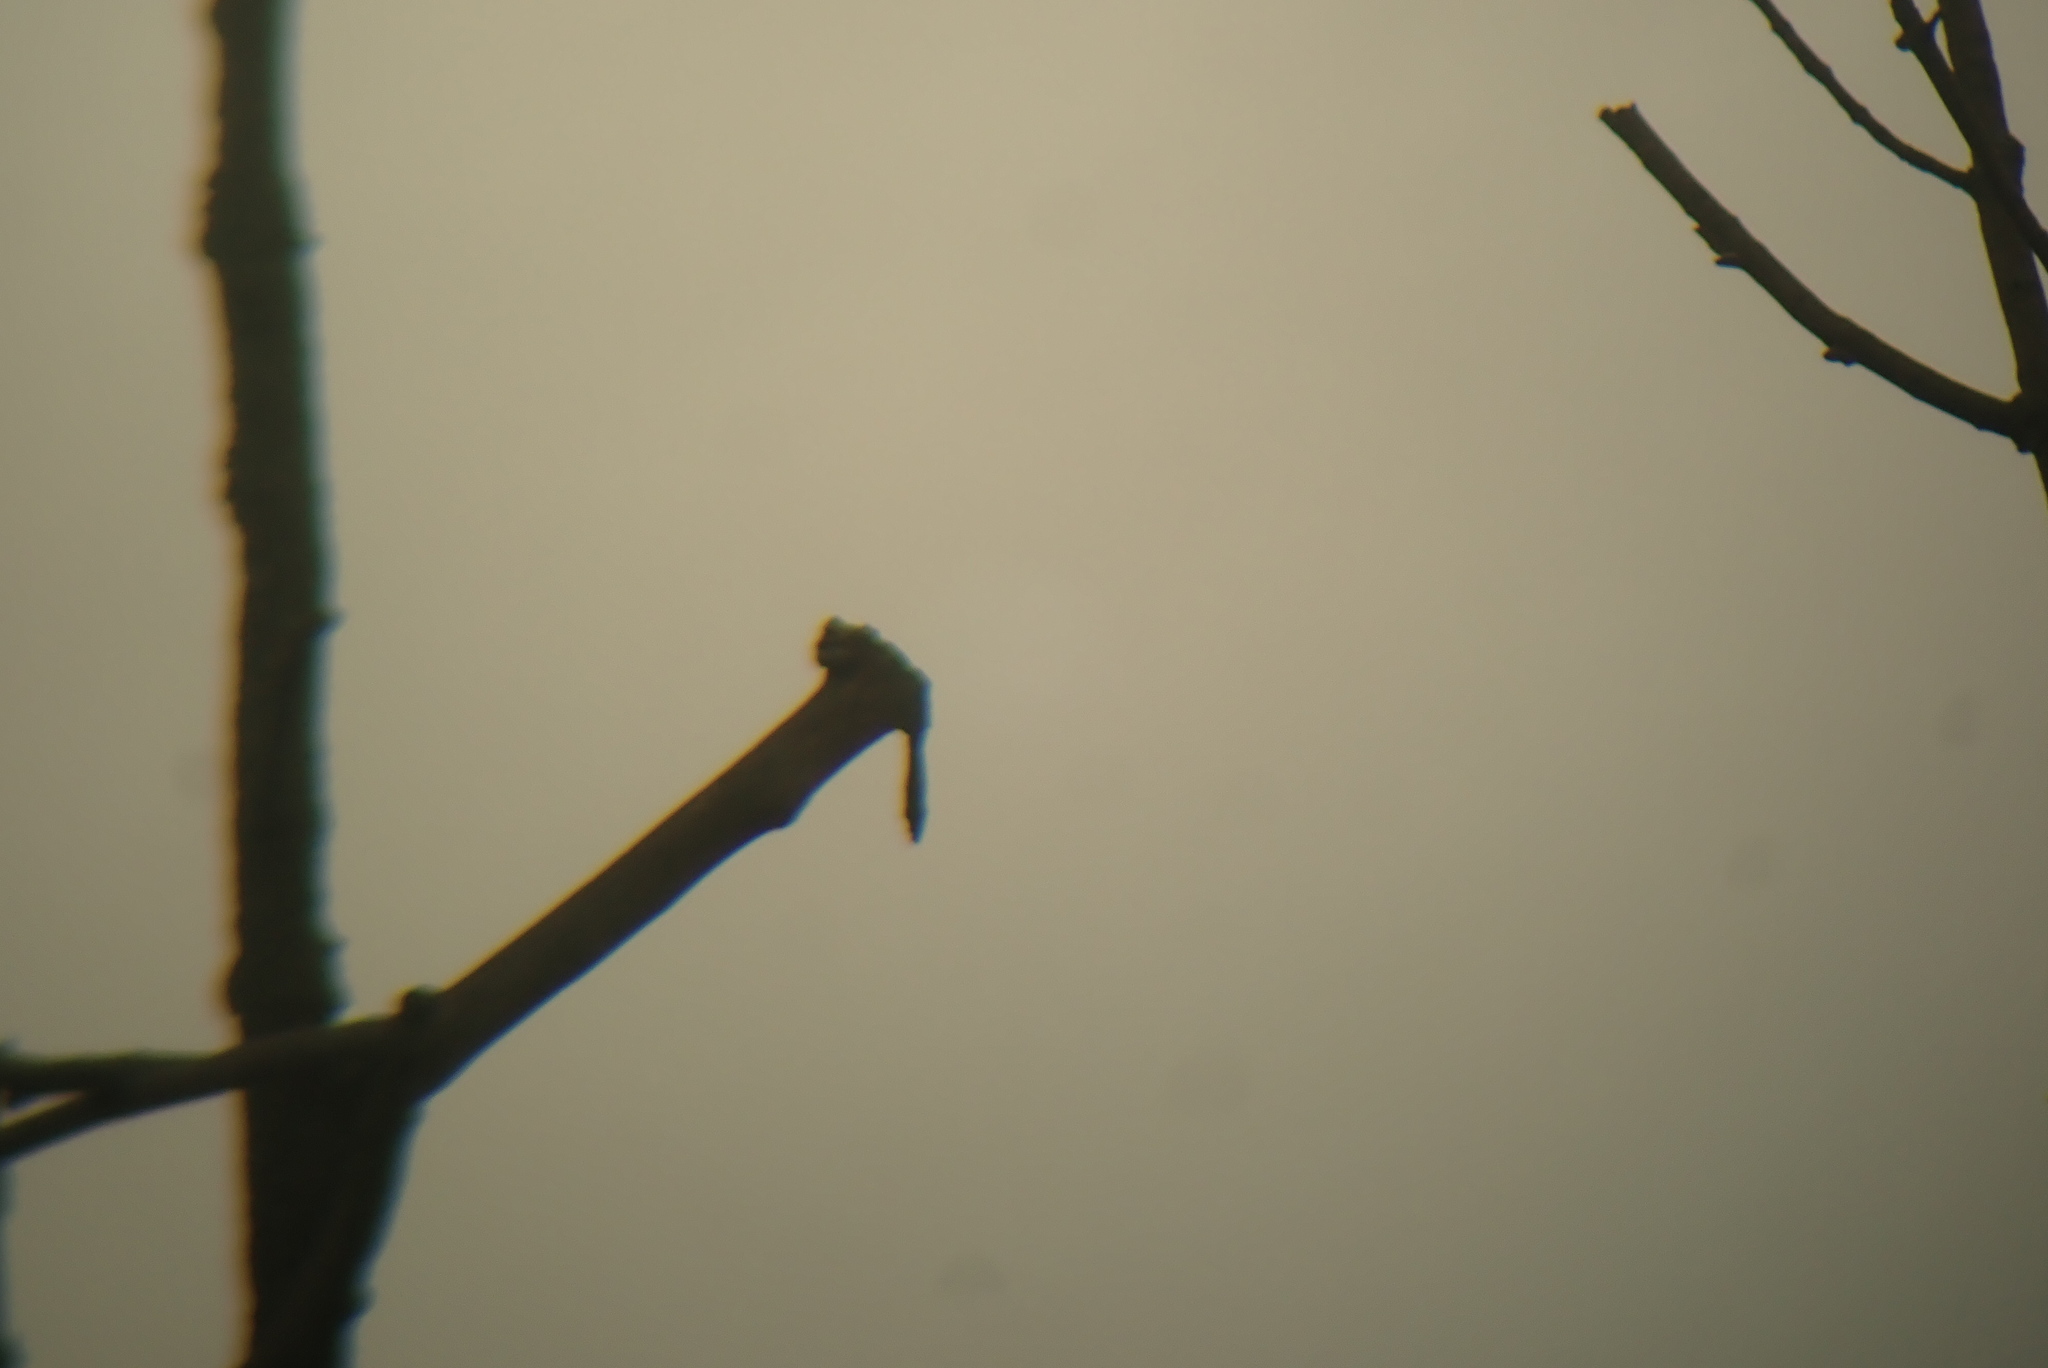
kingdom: Animalia
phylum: Chordata
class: Mammalia
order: Rodentia
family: Sciuridae
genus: Glaucomys
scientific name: Glaucomys volans
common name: Southern flying squirrel
